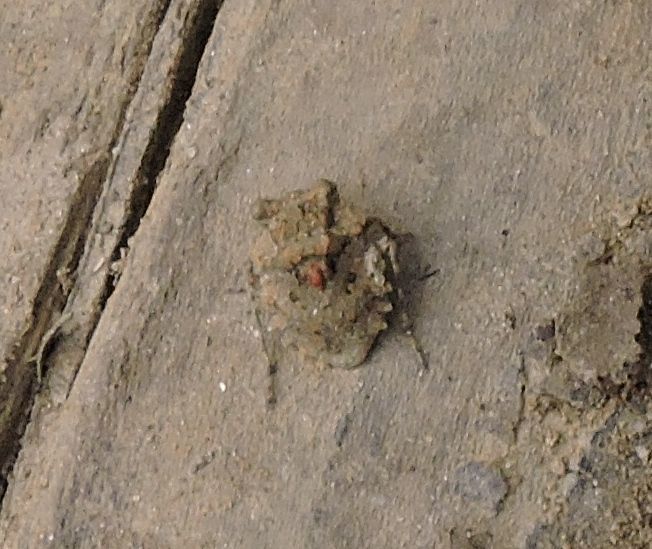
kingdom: Animalia
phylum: Arthropoda
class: Insecta
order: Hemiptera
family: Gelastocoridae
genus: Gelastocoris
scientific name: Gelastocoris oculatus
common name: Toad bug
